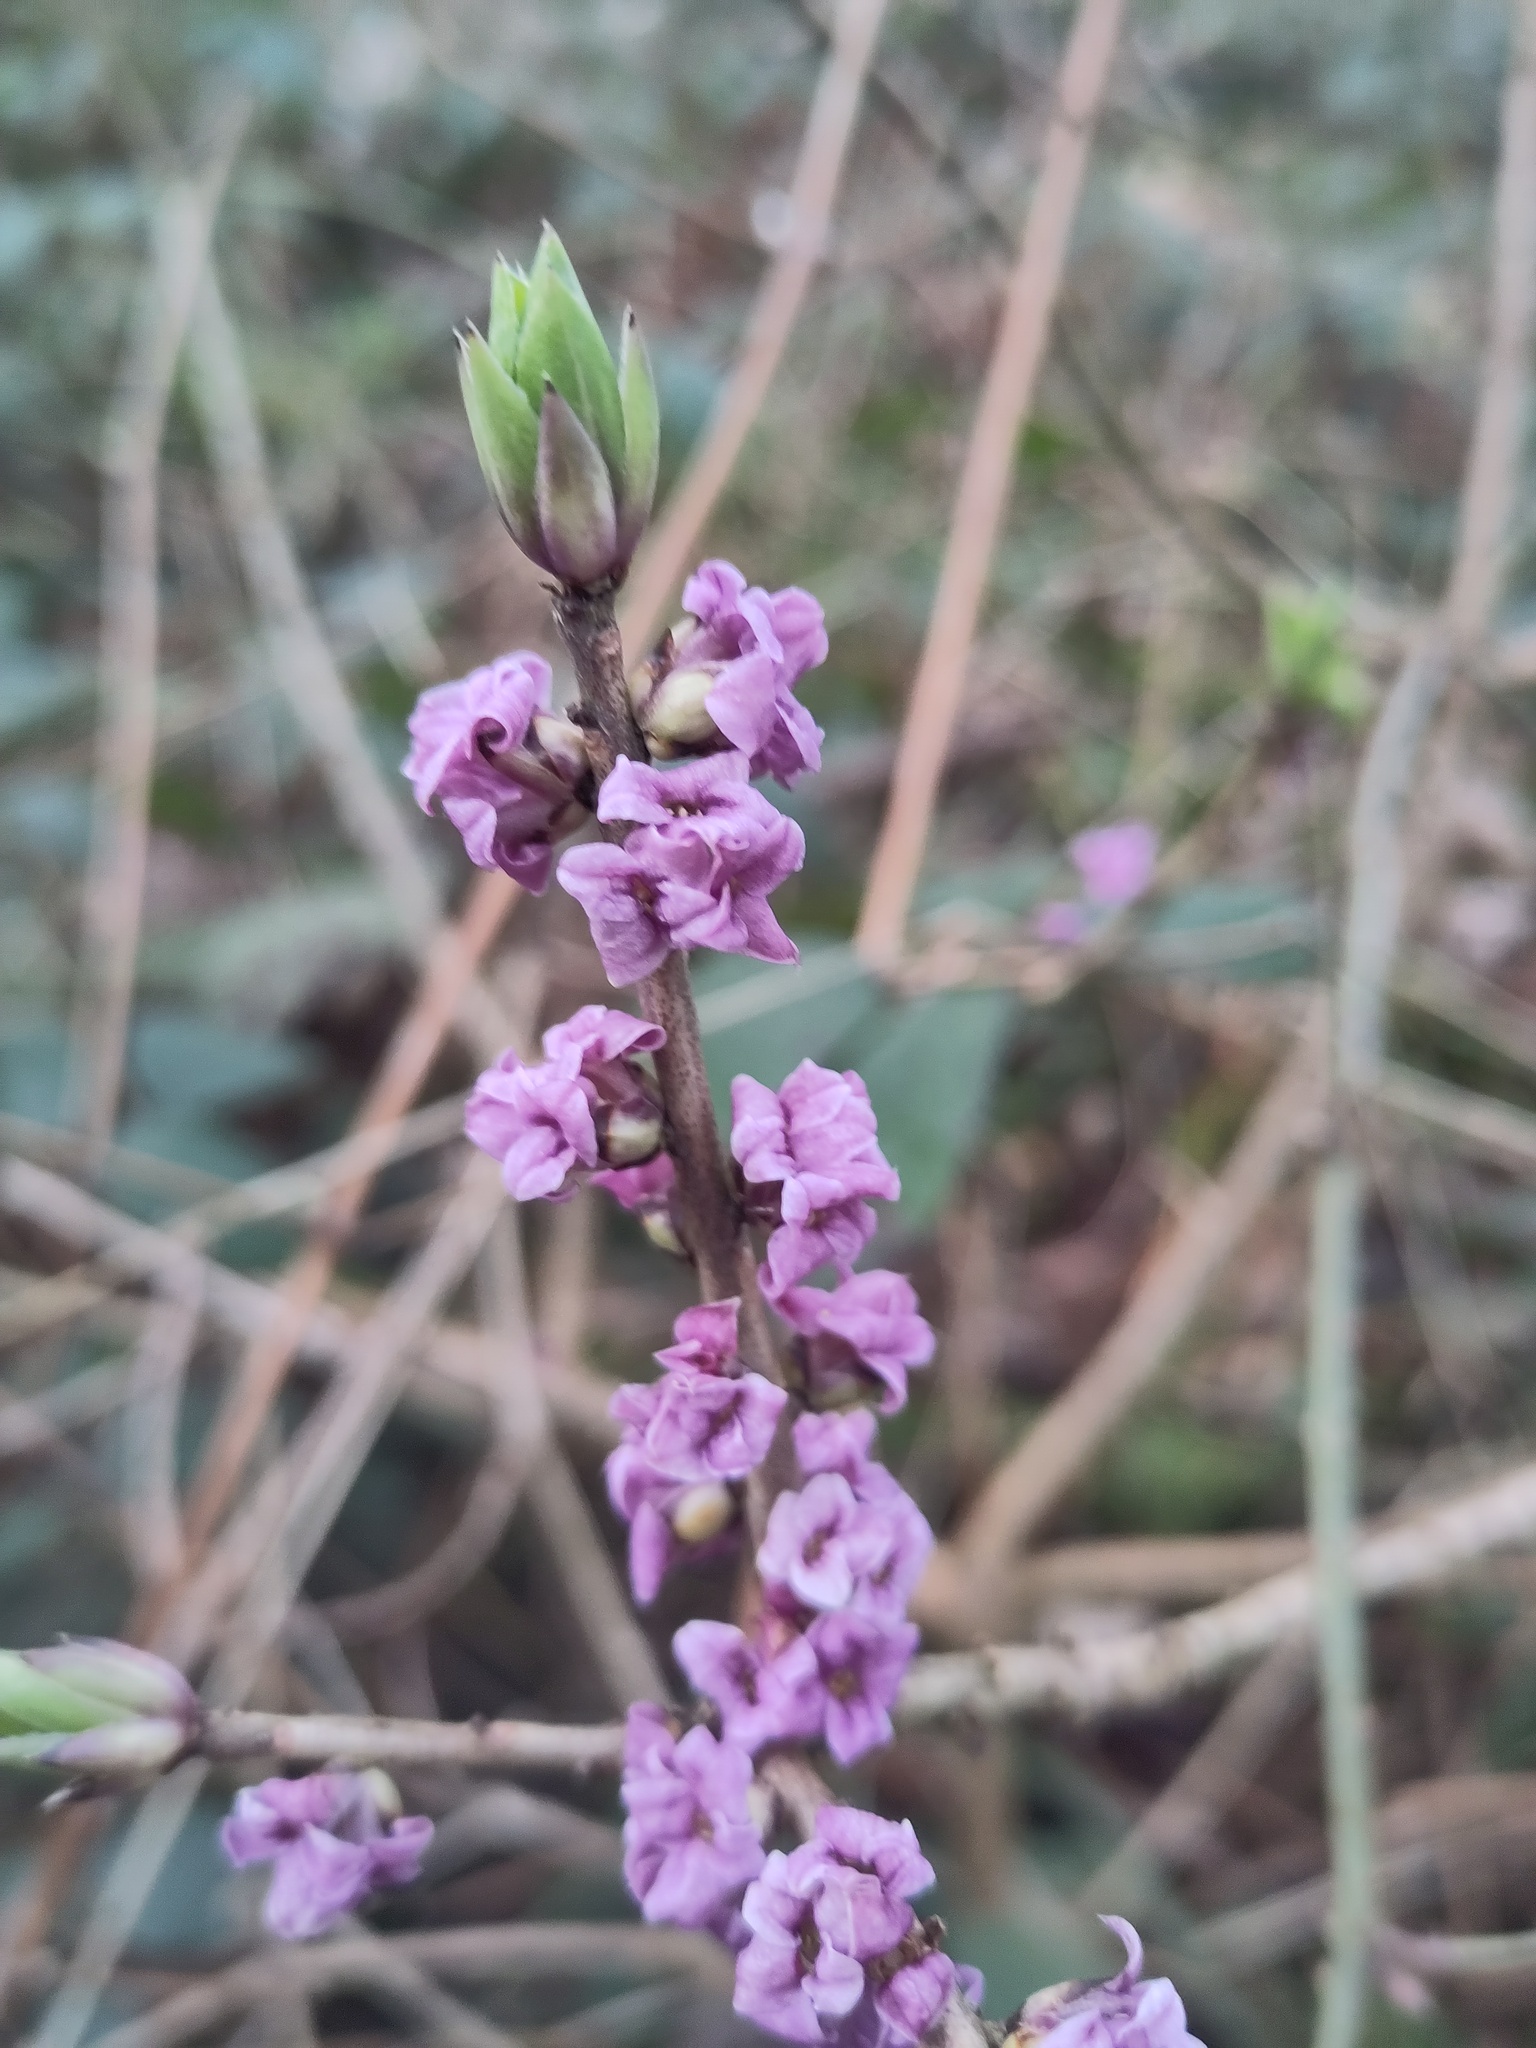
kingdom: Plantae
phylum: Tracheophyta
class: Magnoliopsida
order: Malvales
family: Thymelaeaceae
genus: Daphne
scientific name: Daphne mezereum
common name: Mezereon
